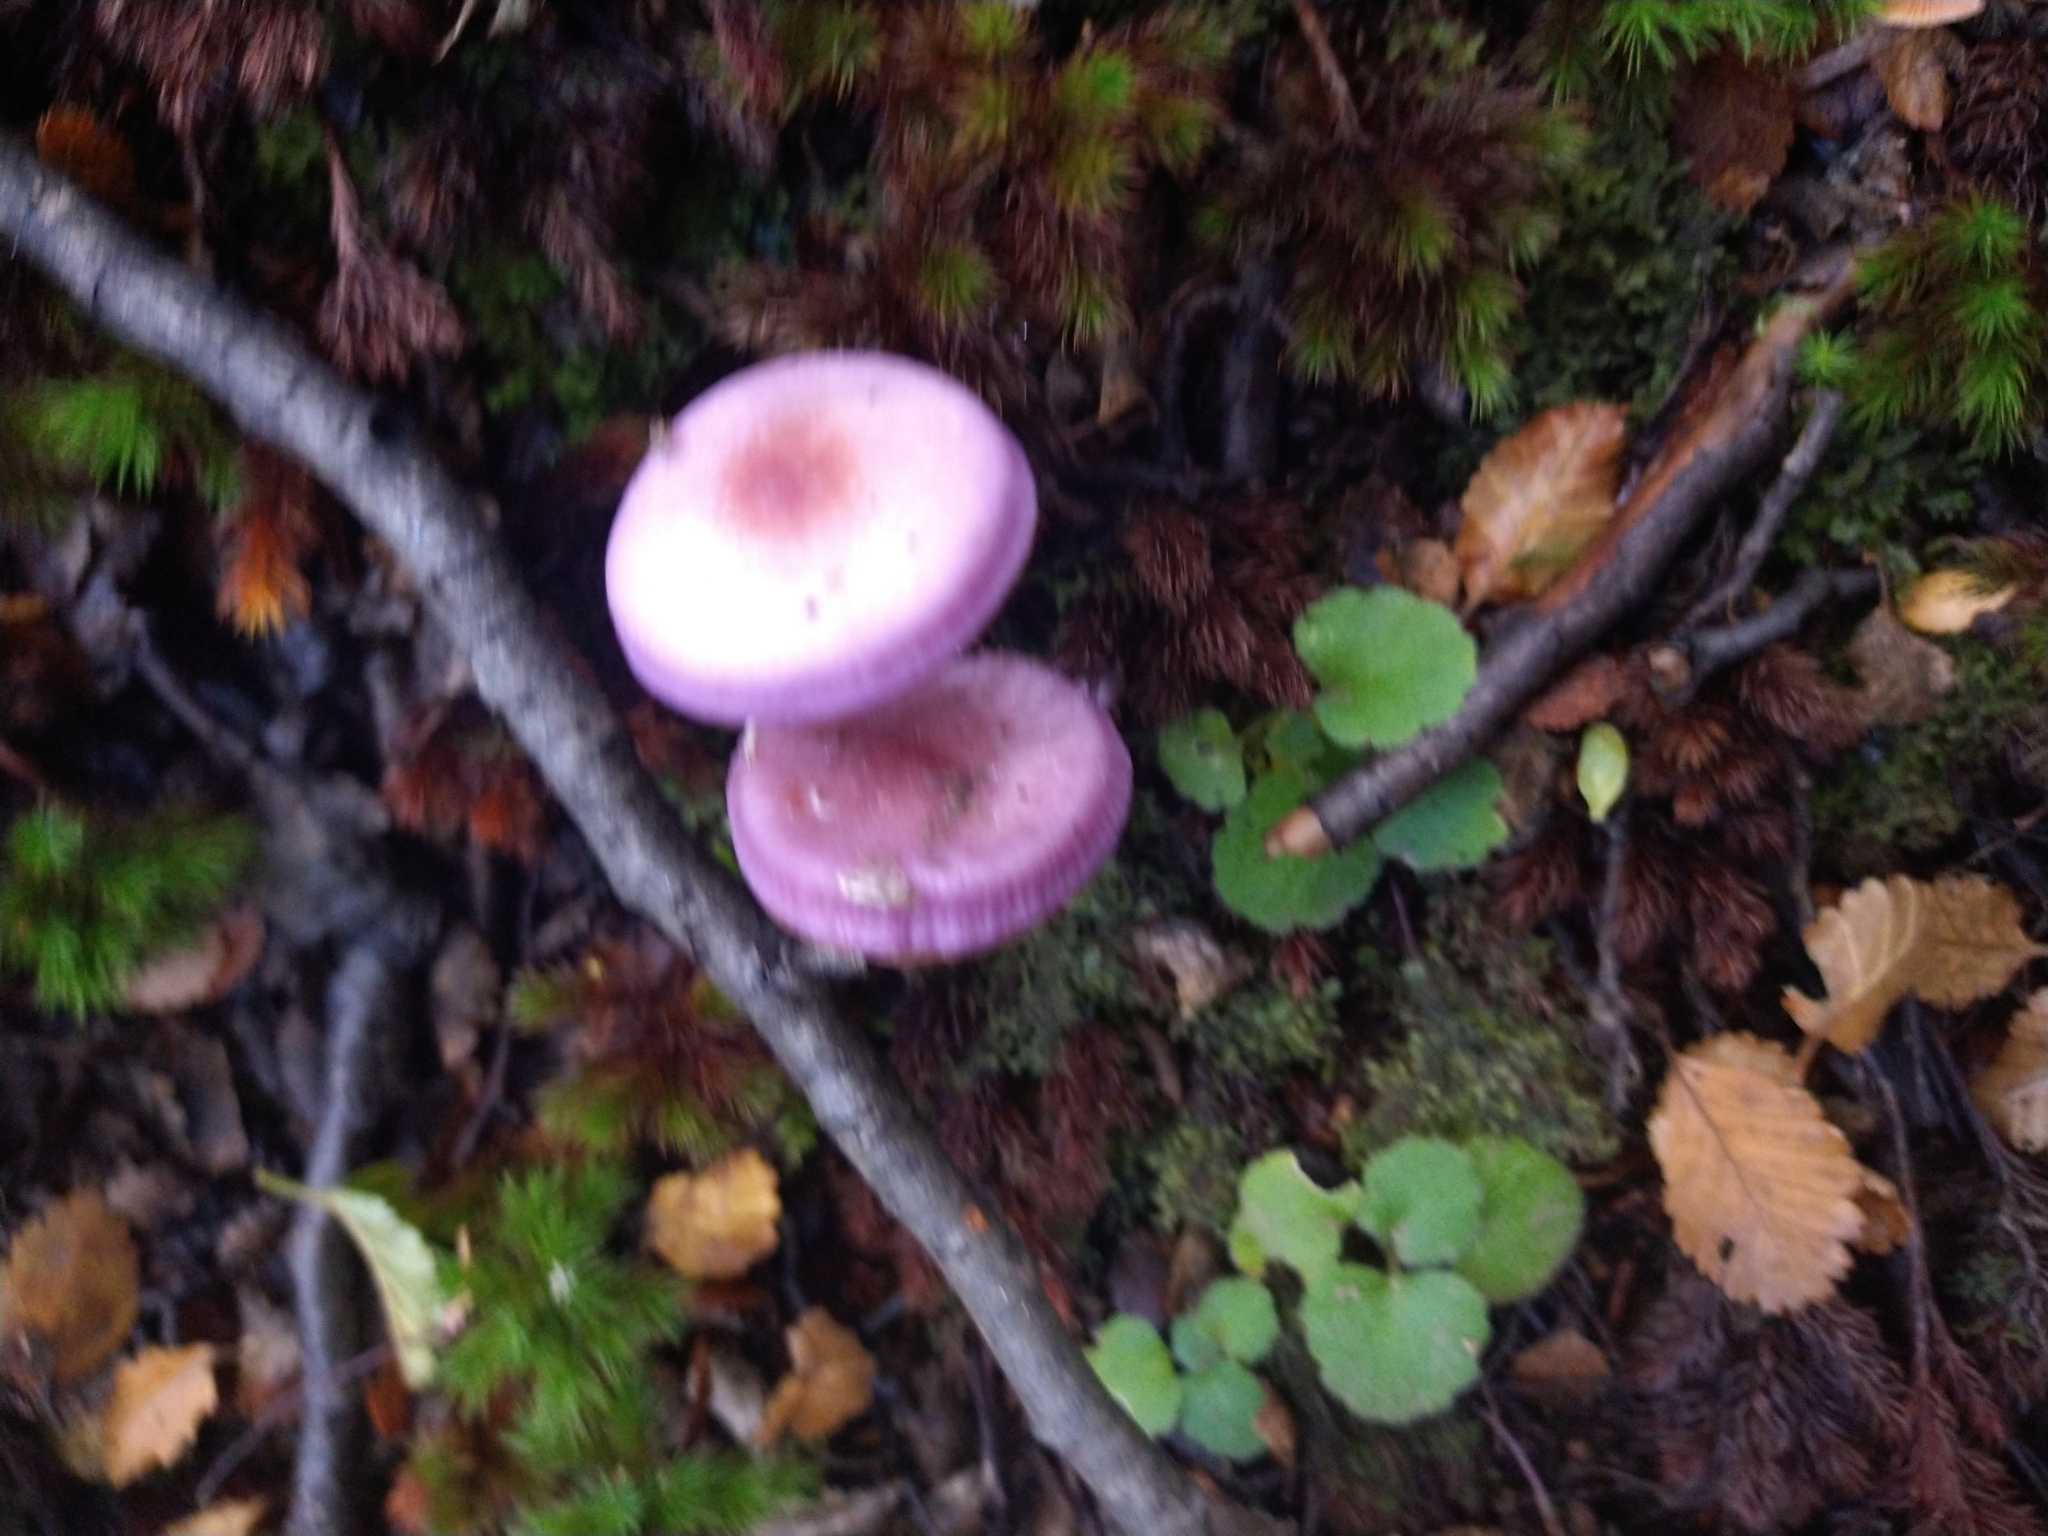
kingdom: Fungi
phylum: Basidiomycota
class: Agaricomycetes
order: Agaricales
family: Cortinariaceae
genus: Cortinarius
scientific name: Cortinarius magellanicus
